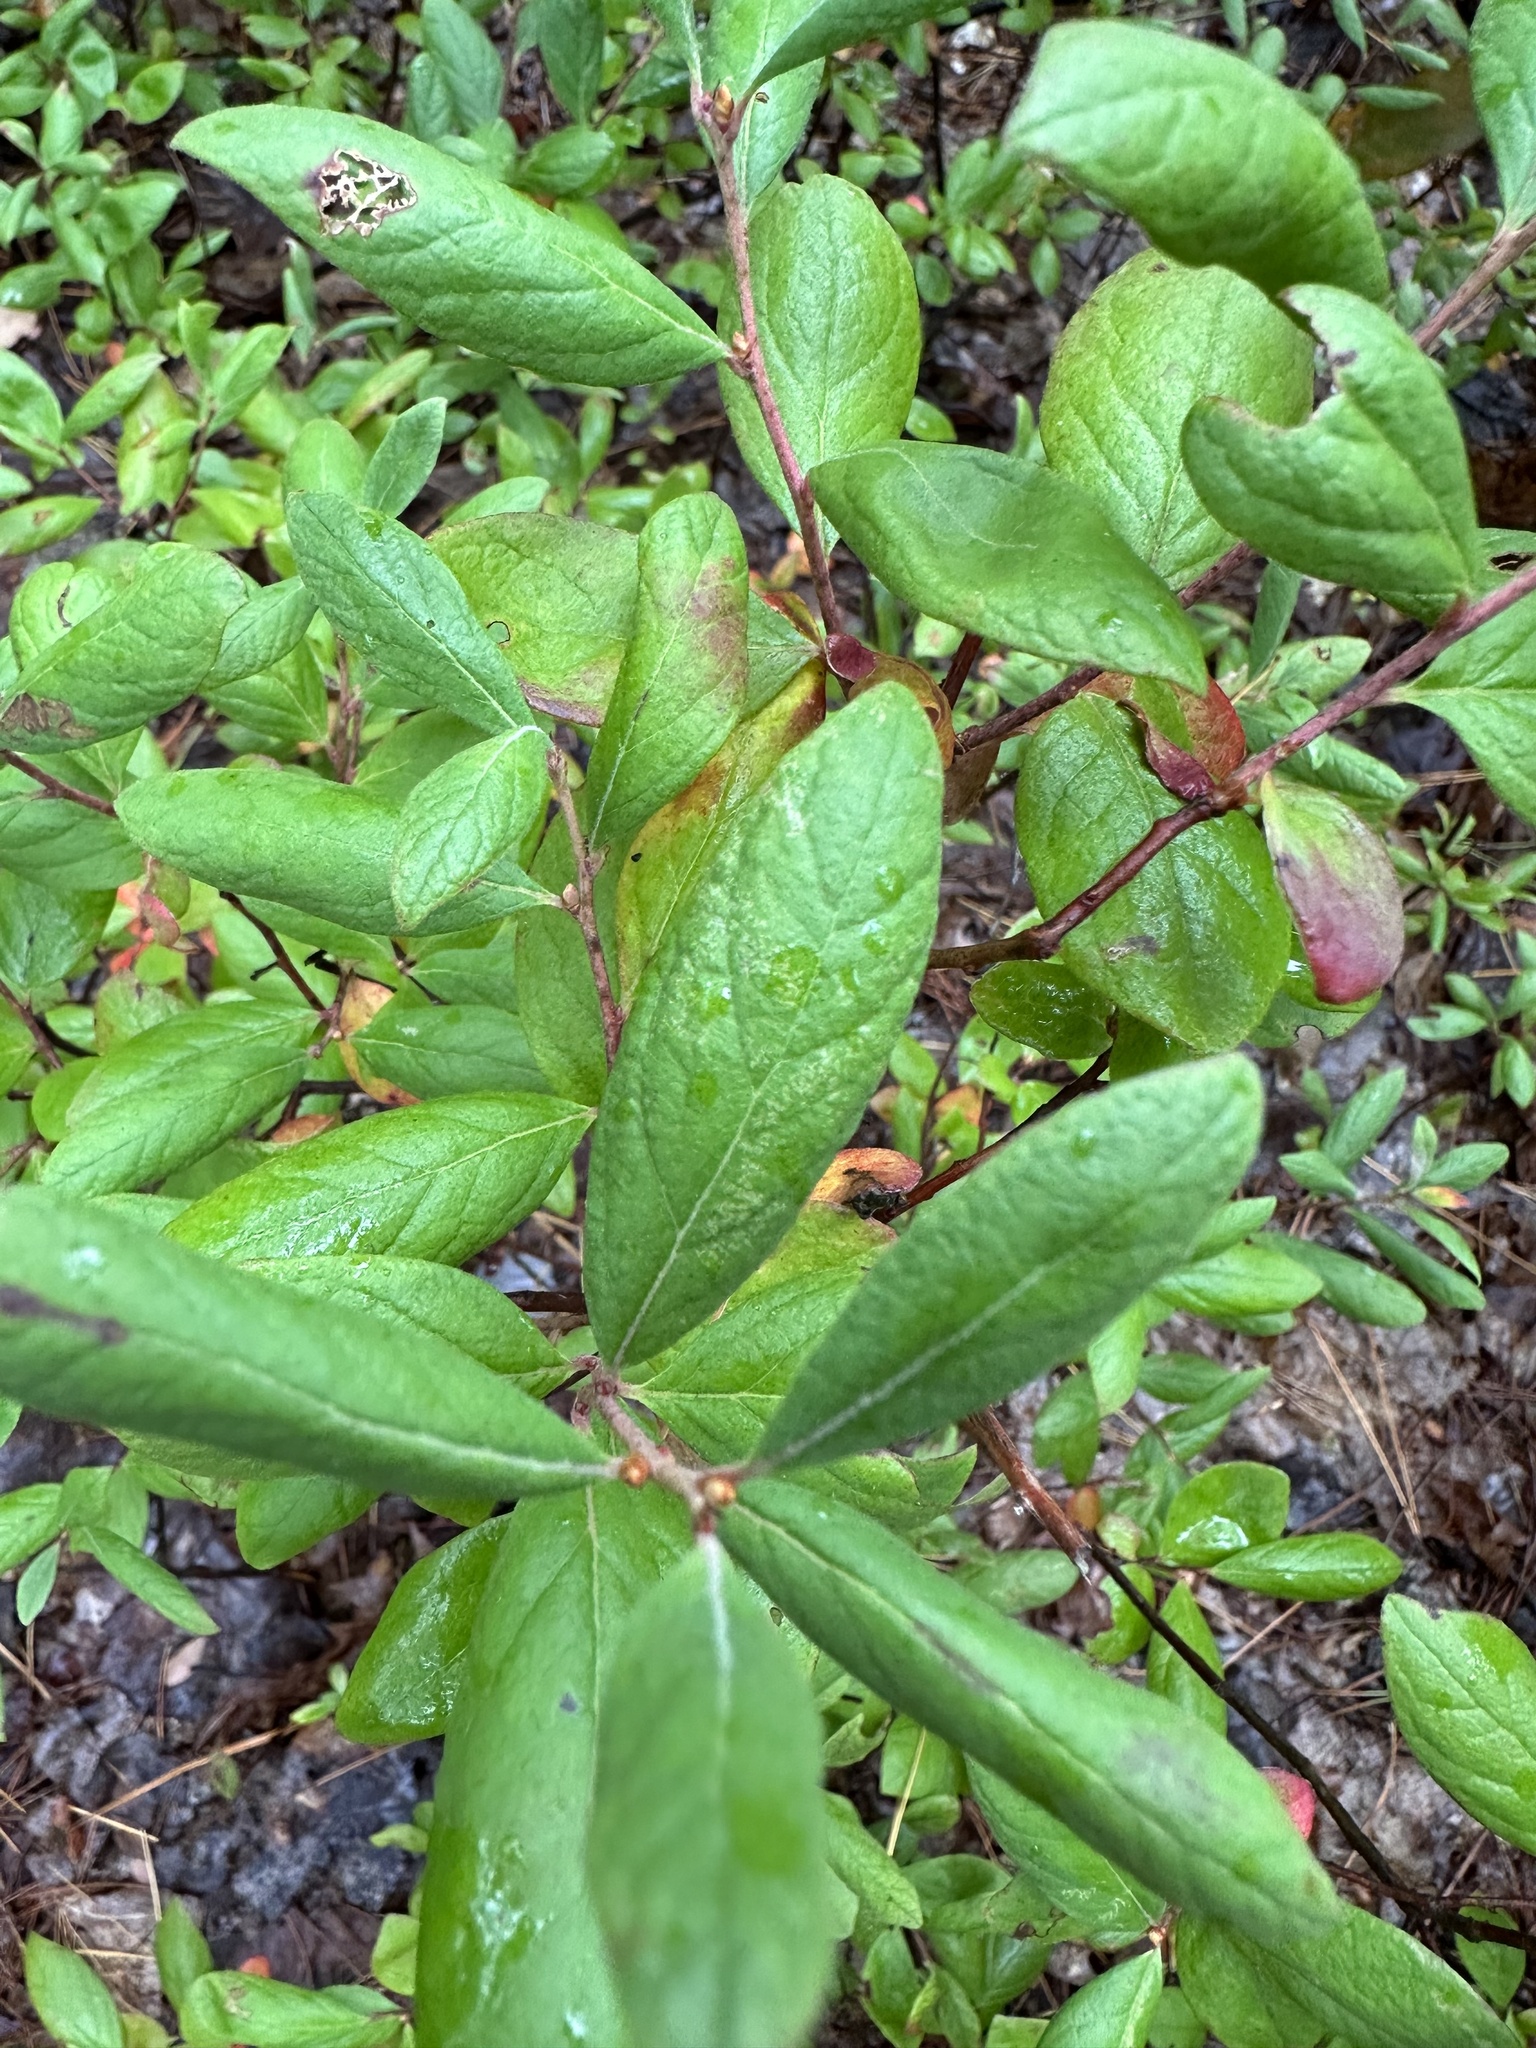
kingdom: Plantae
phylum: Tracheophyta
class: Magnoliopsida
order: Ericales
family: Ericaceae
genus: Gaylussacia
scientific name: Gaylussacia baccata
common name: Black huckleberry
